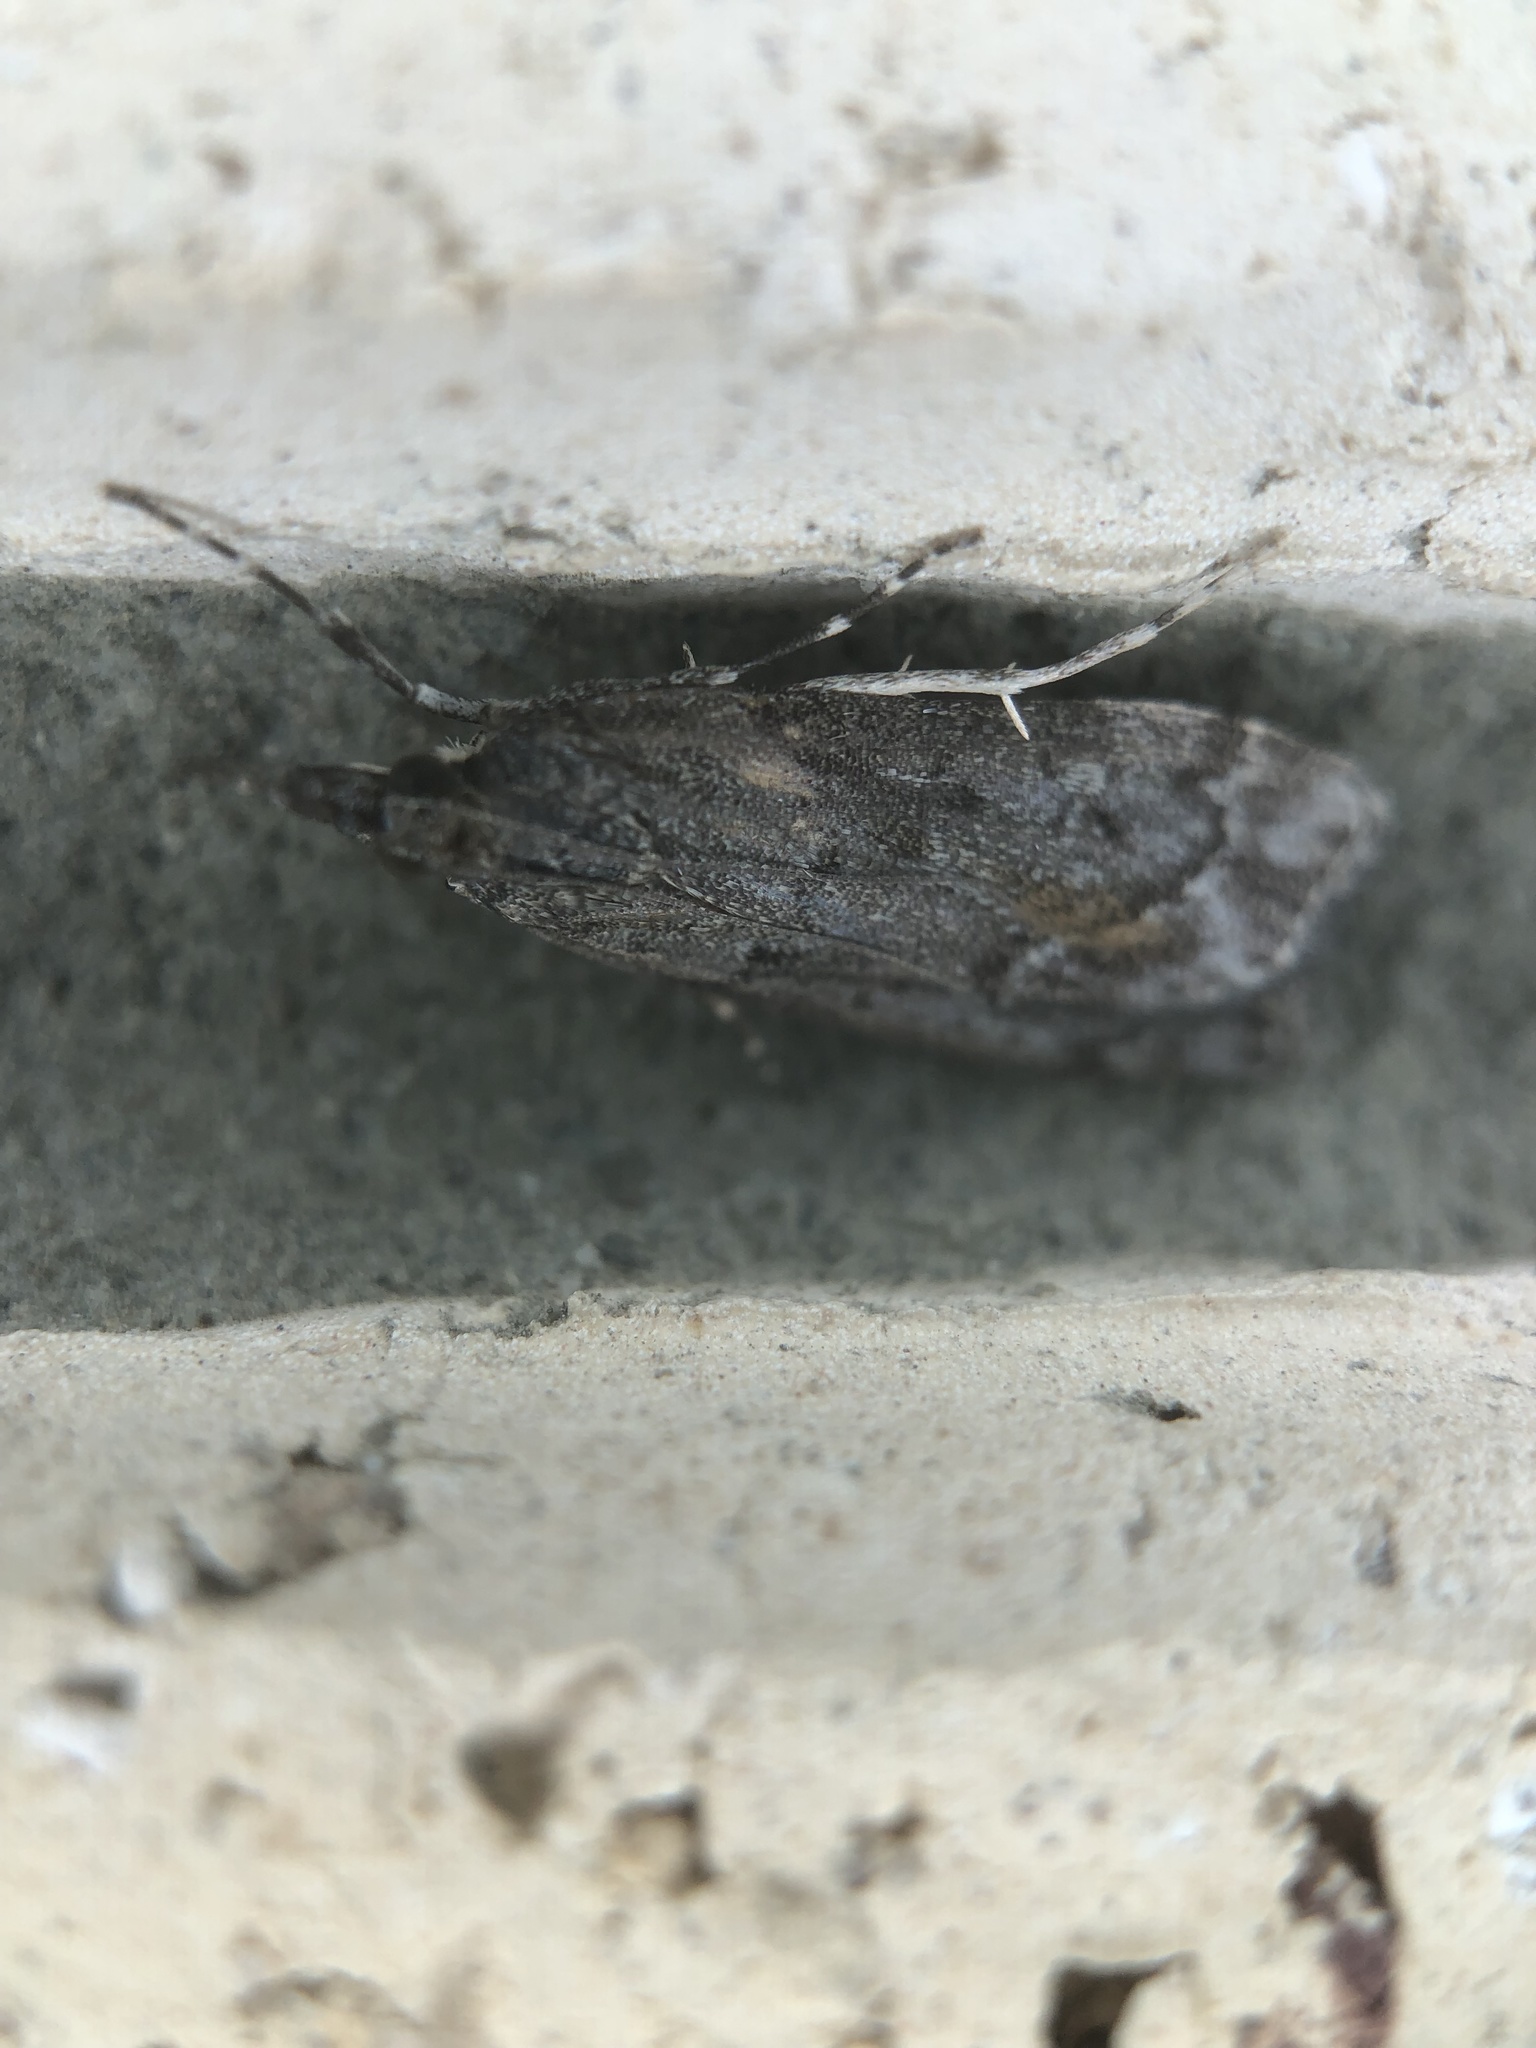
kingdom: Animalia
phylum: Arthropoda
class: Insecta
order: Lepidoptera
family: Crambidae
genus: Eudonia
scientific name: Eudonia submarginalis
